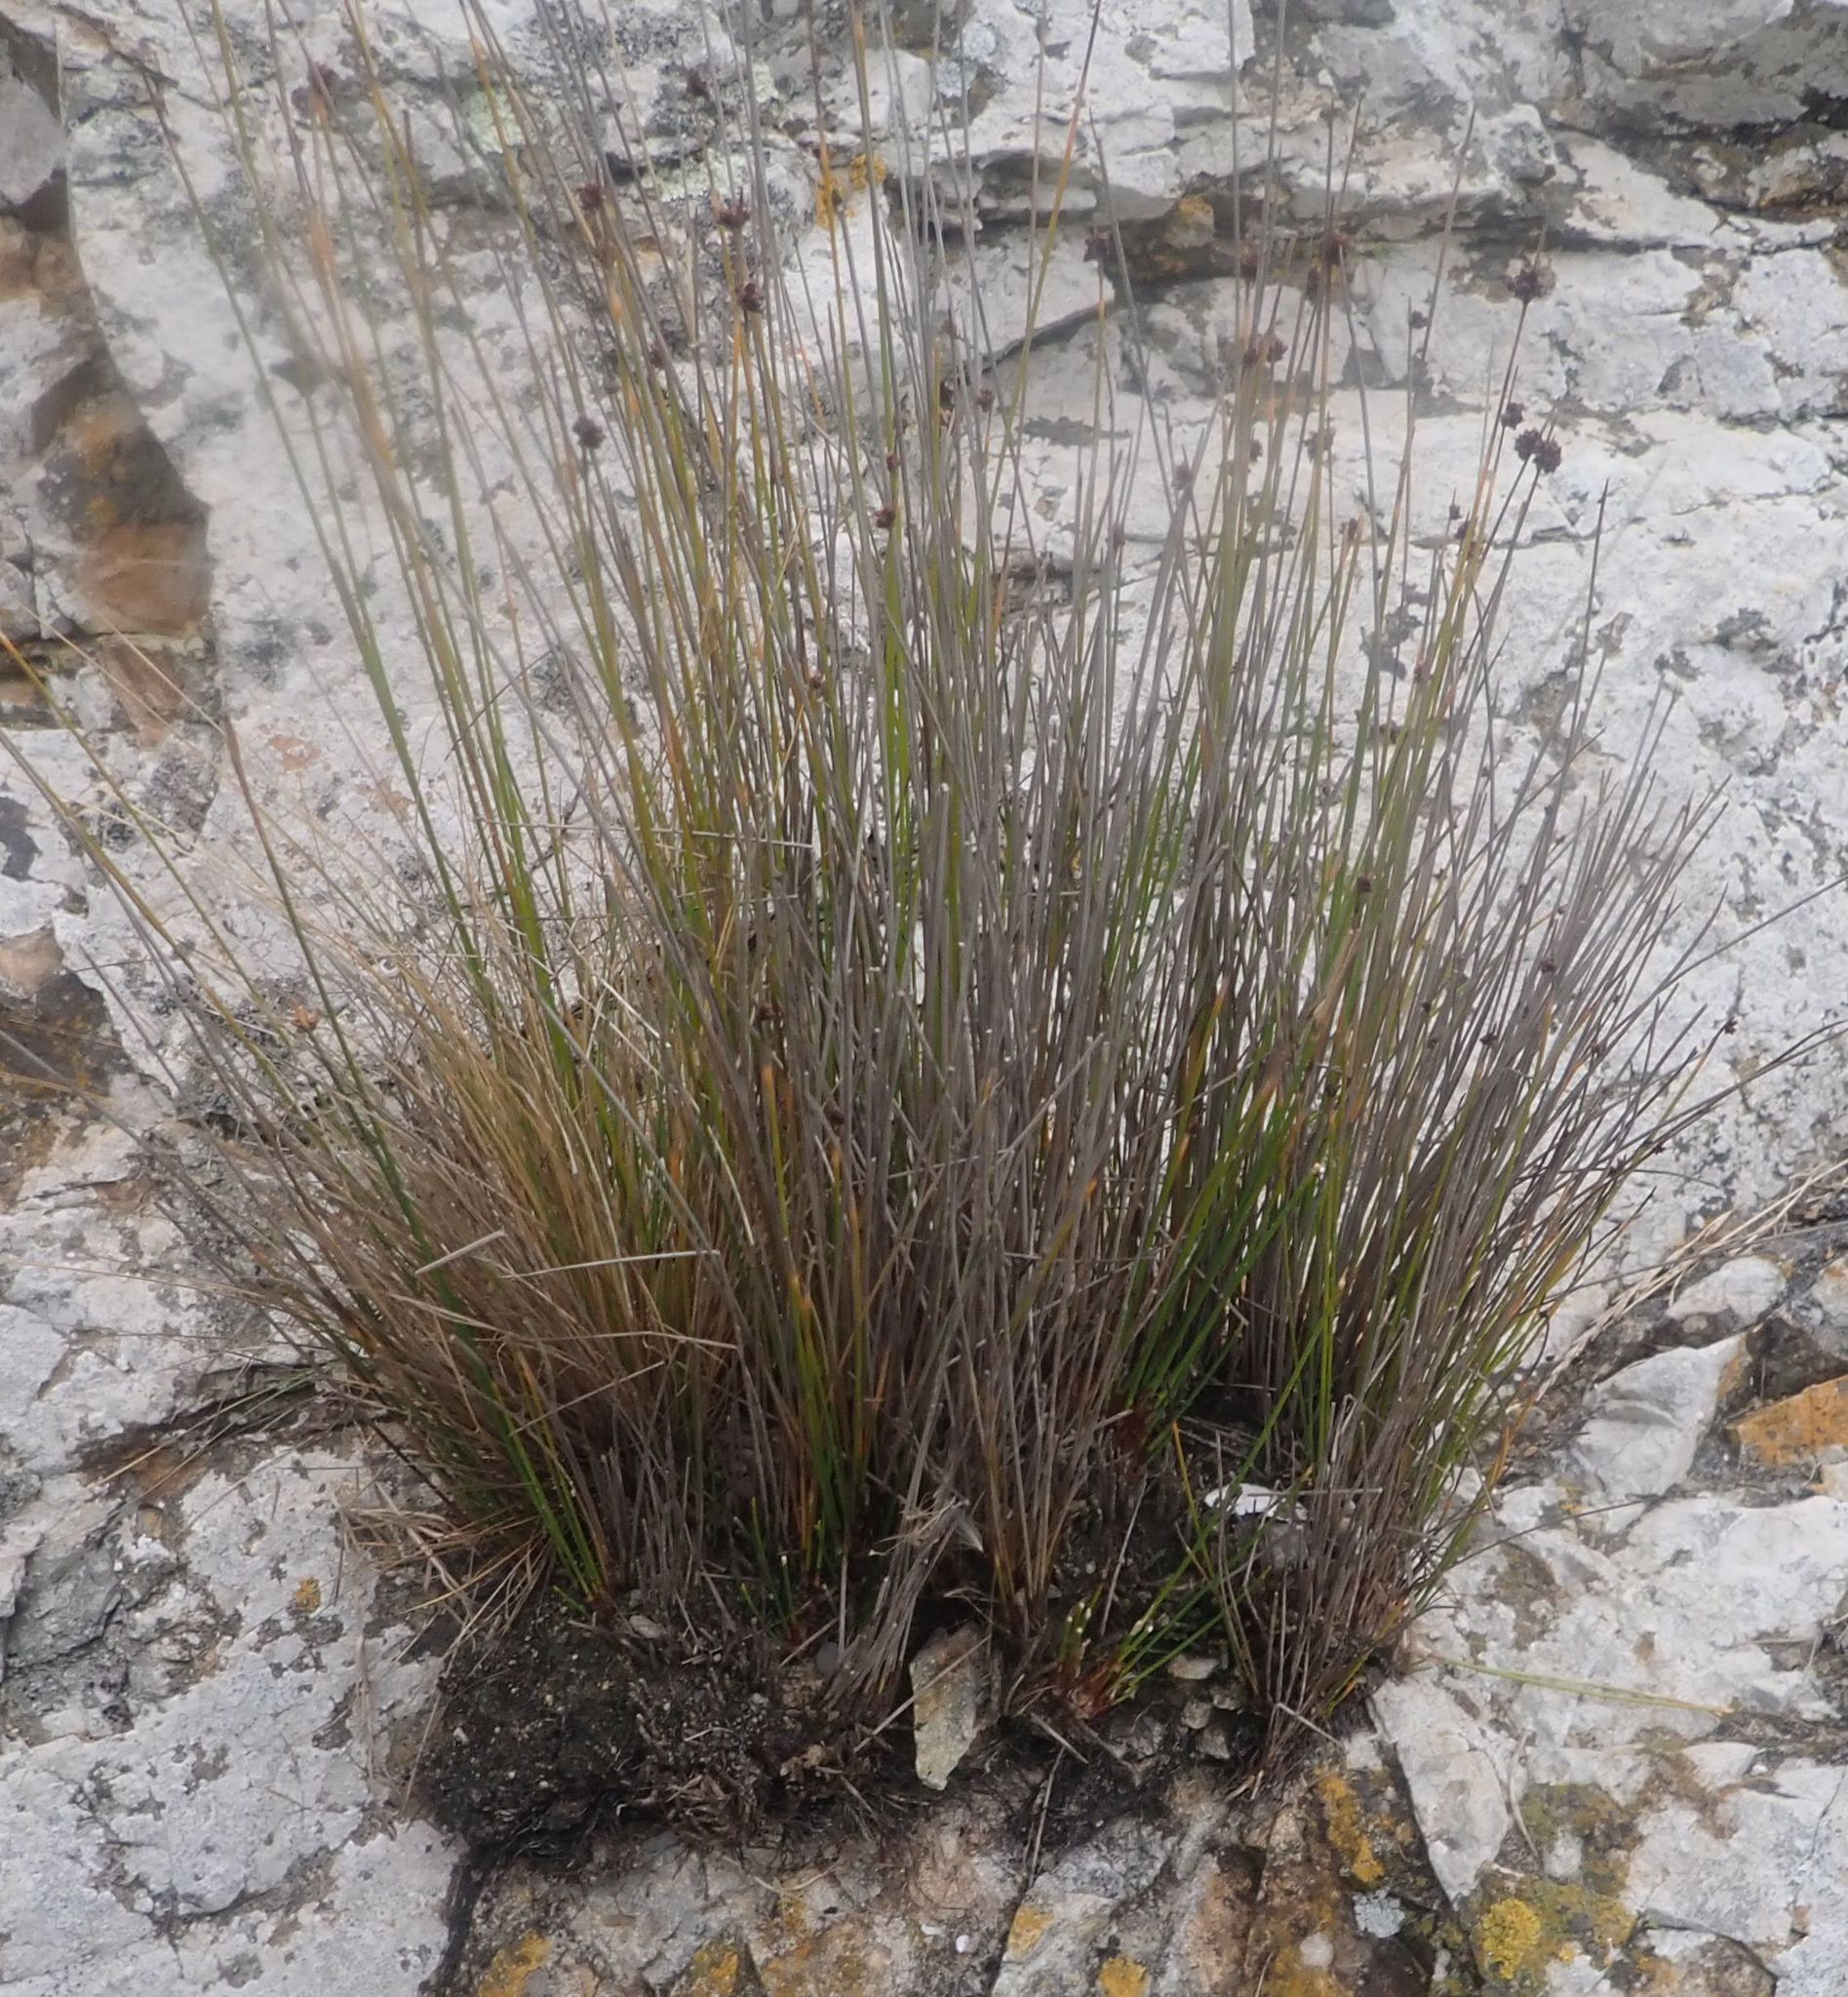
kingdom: Plantae
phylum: Tracheophyta
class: Liliopsida
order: Poales
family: Cyperaceae
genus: Ficinia
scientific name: Ficinia nodosa
